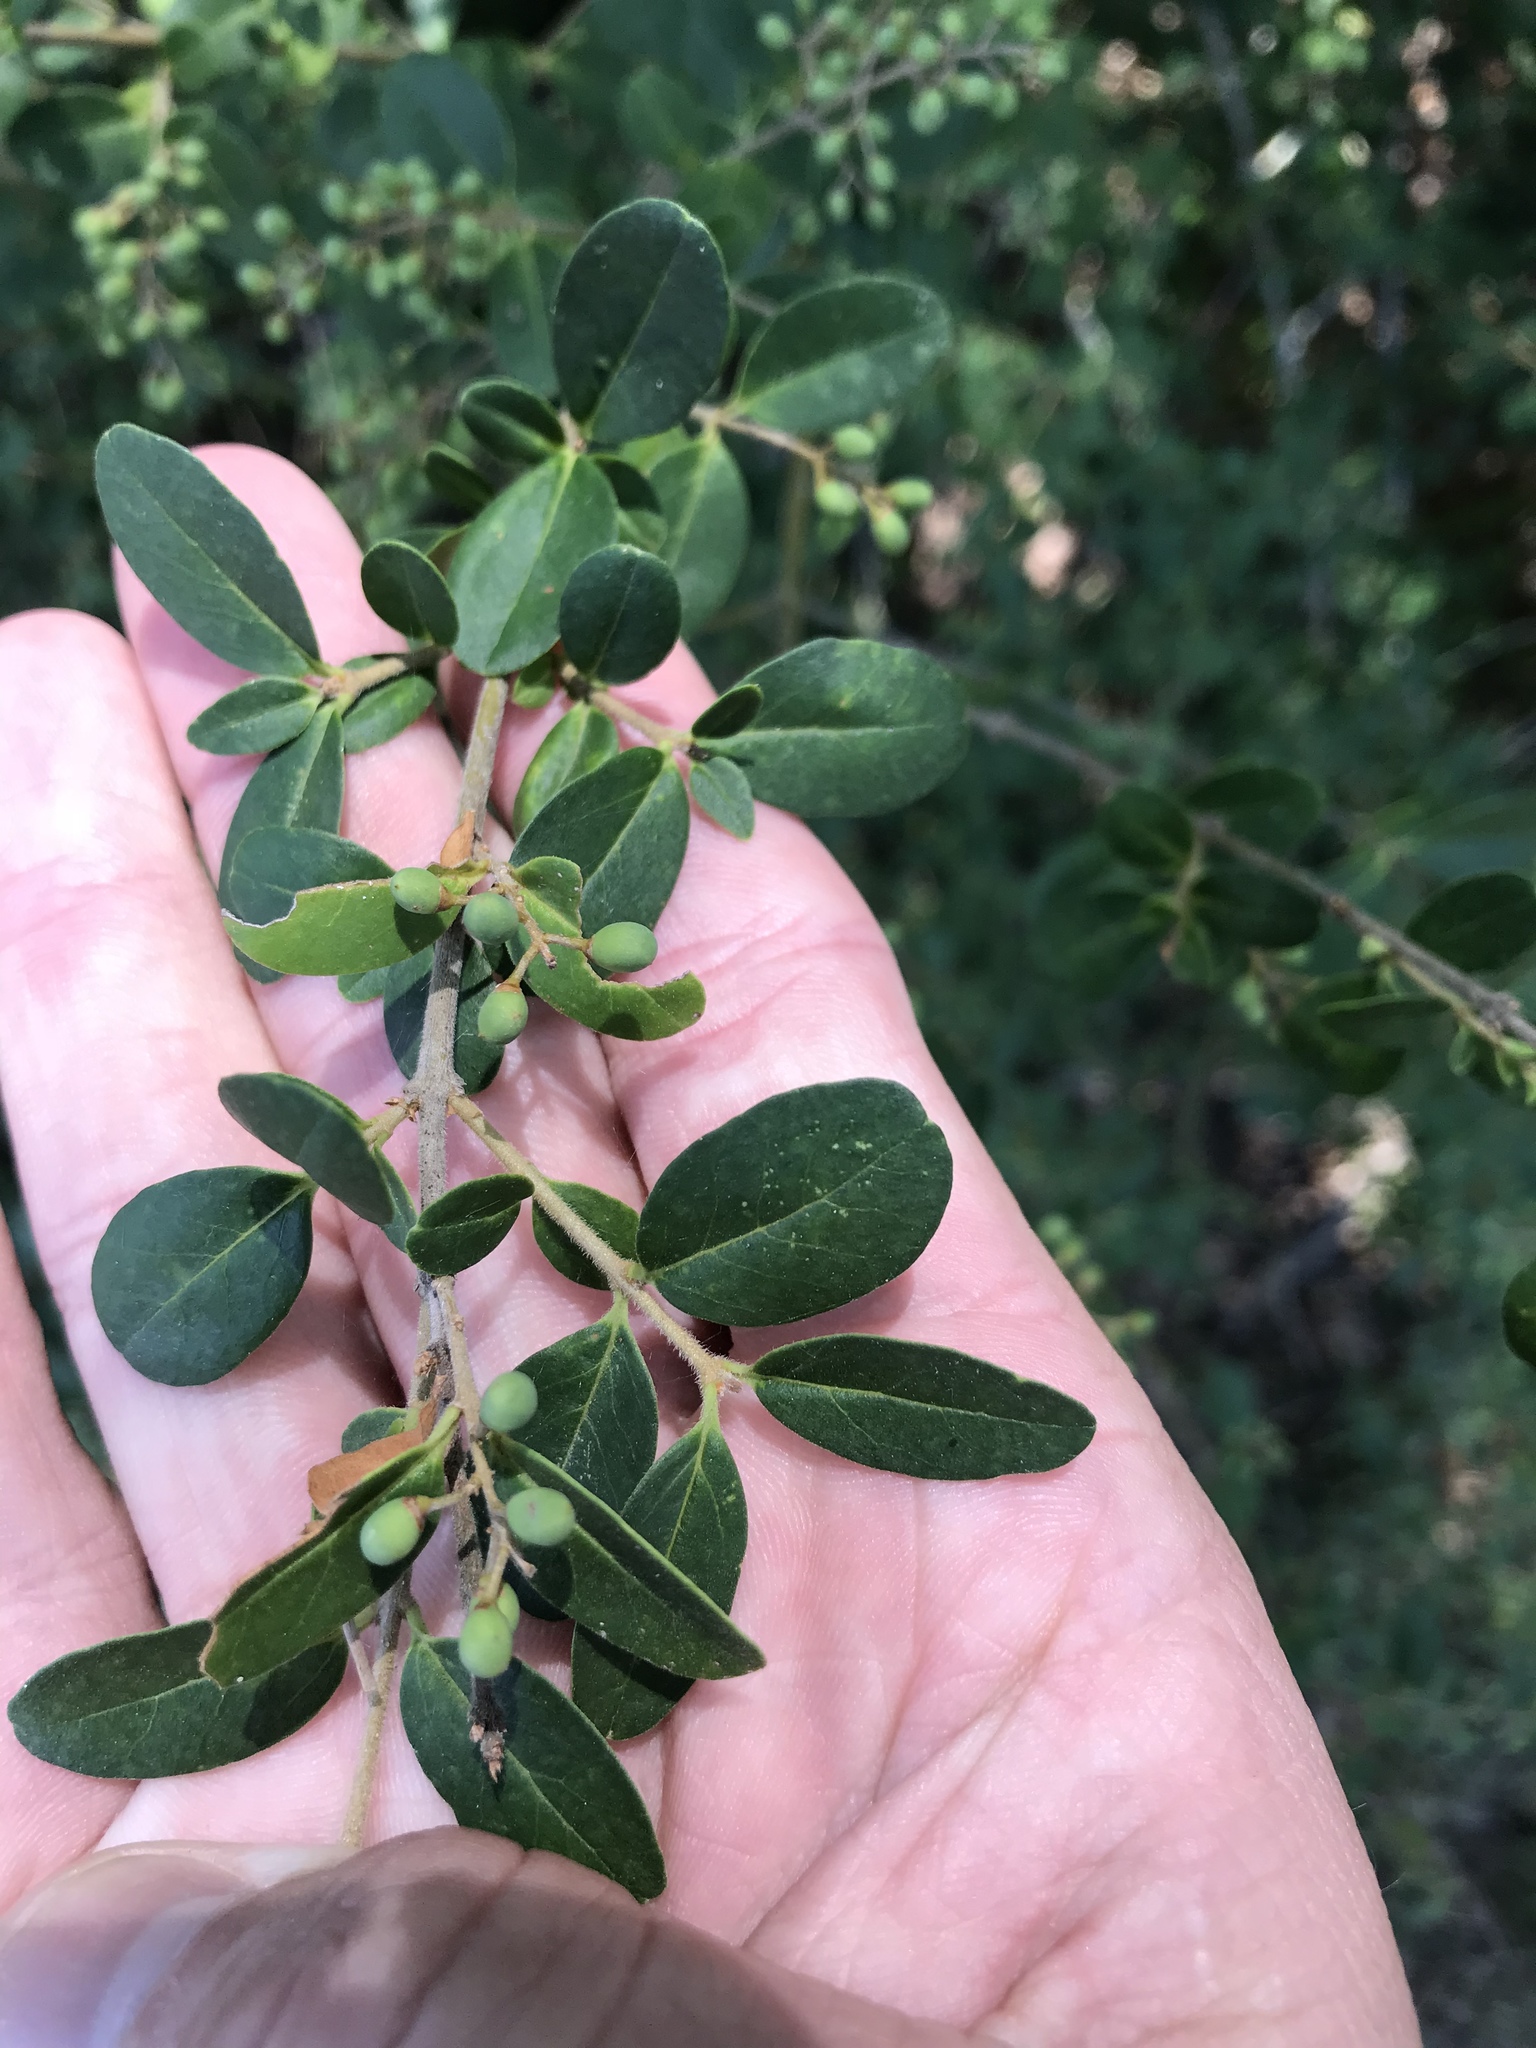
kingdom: Plantae
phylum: Tracheophyta
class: Magnoliopsida
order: Lamiales
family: Oleaceae
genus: Ligustrum
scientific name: Ligustrum sinense
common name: Chinese privet
